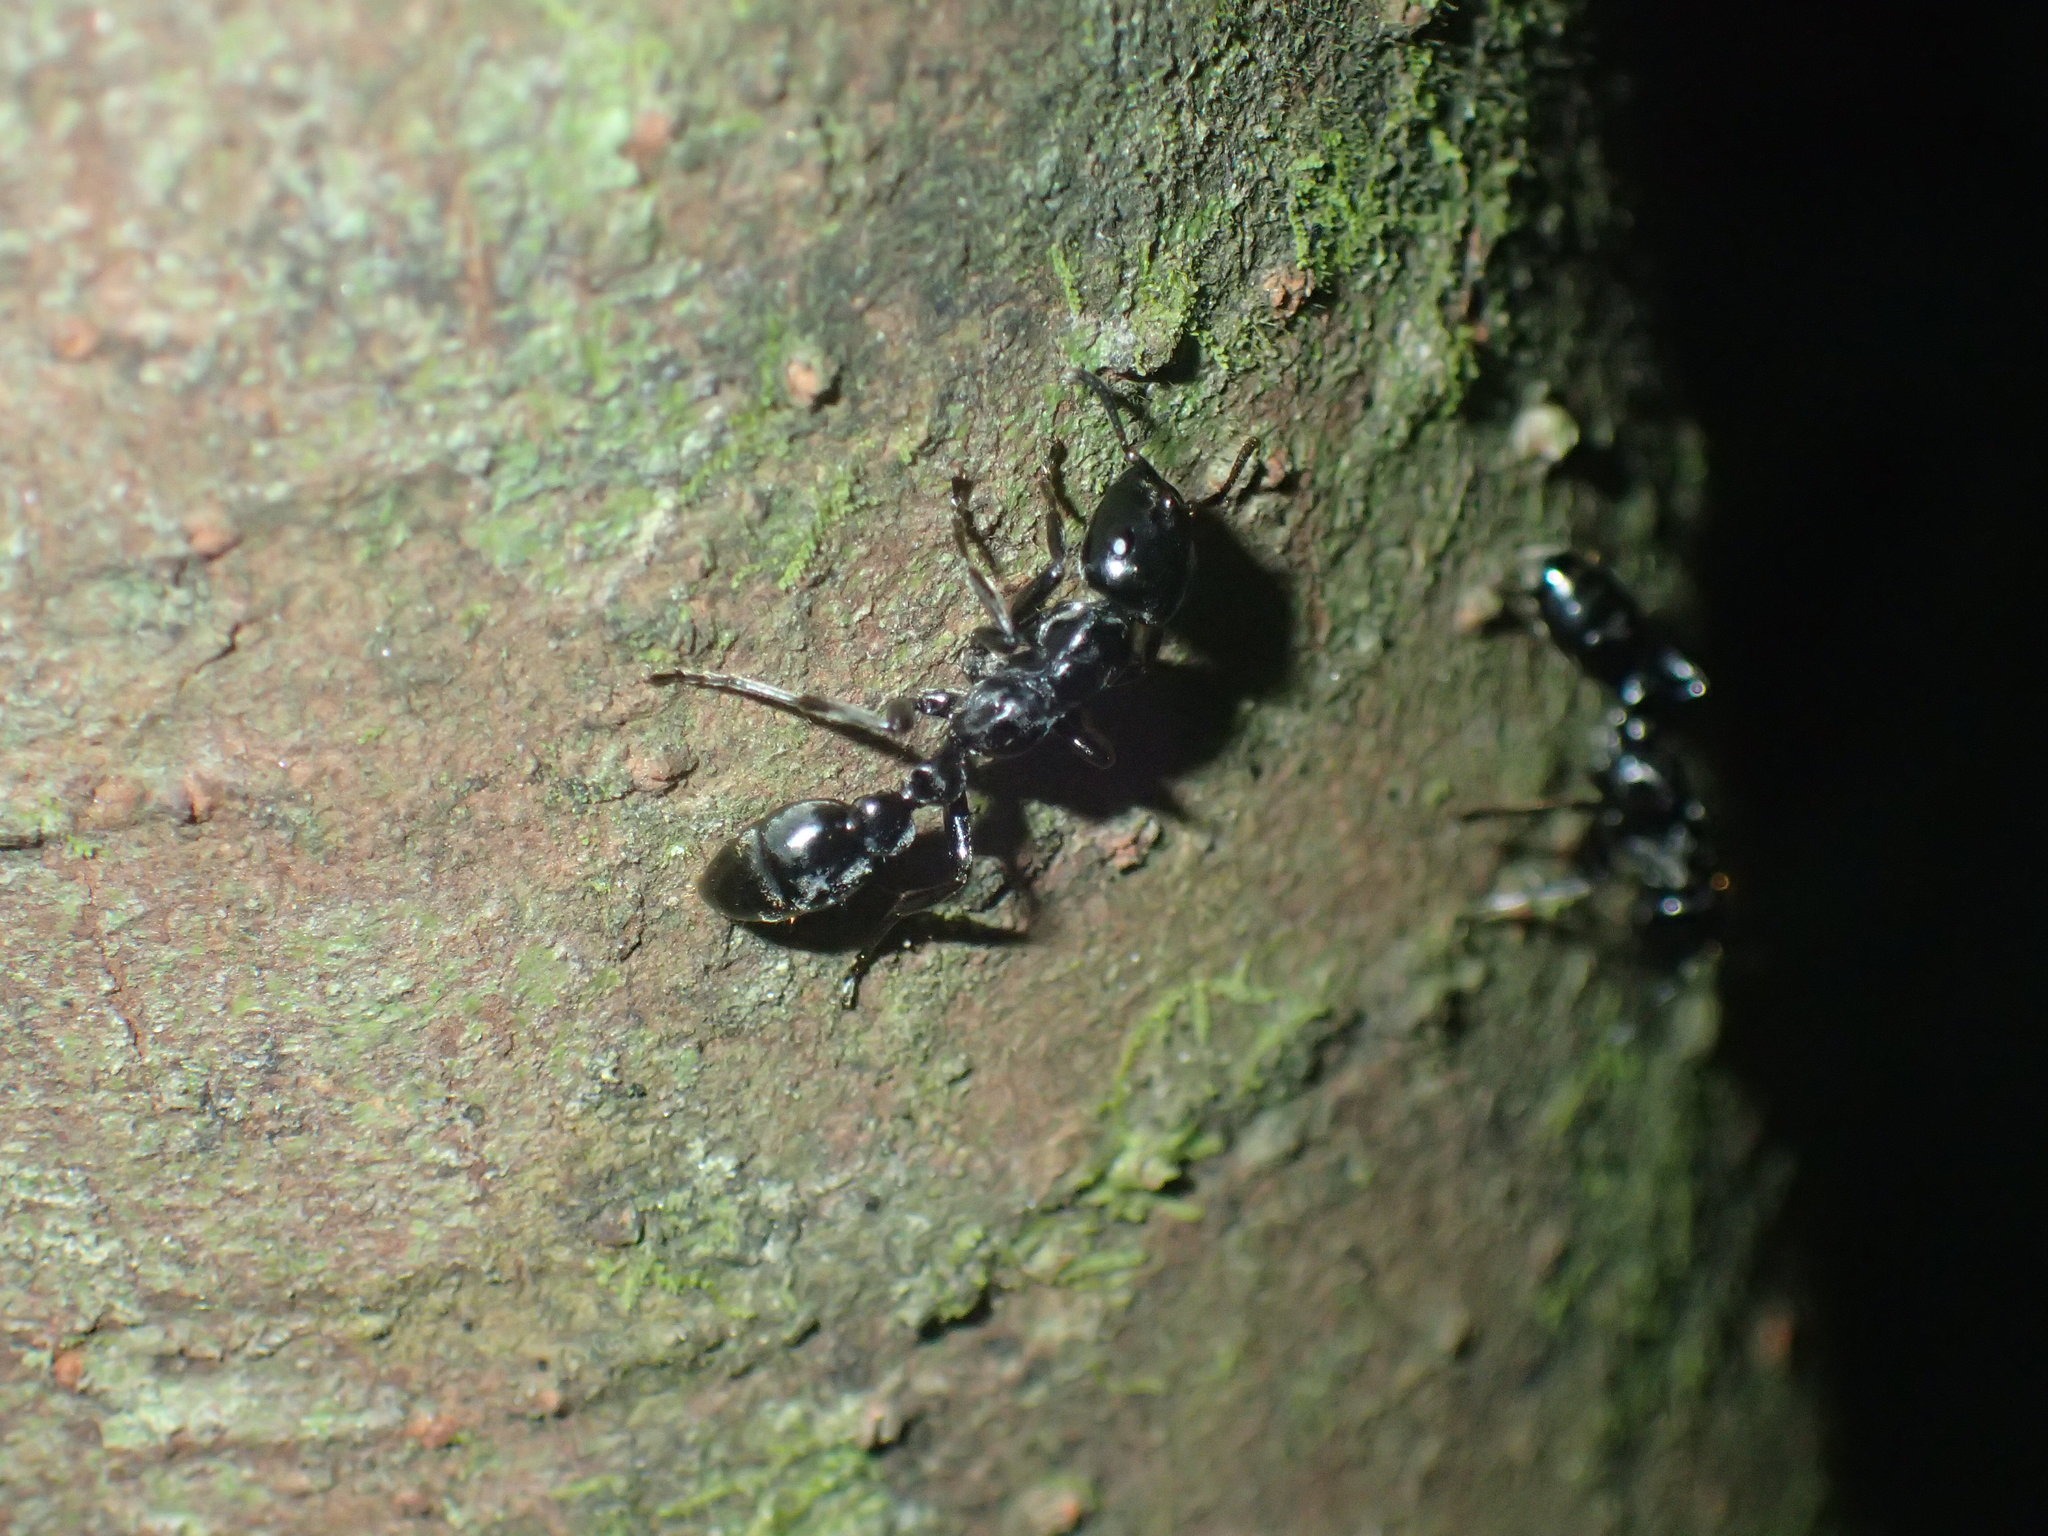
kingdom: Animalia
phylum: Arthropoda
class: Insecta
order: Hymenoptera
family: Formicidae
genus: Tetraponera
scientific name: Tetraponera aethiops
